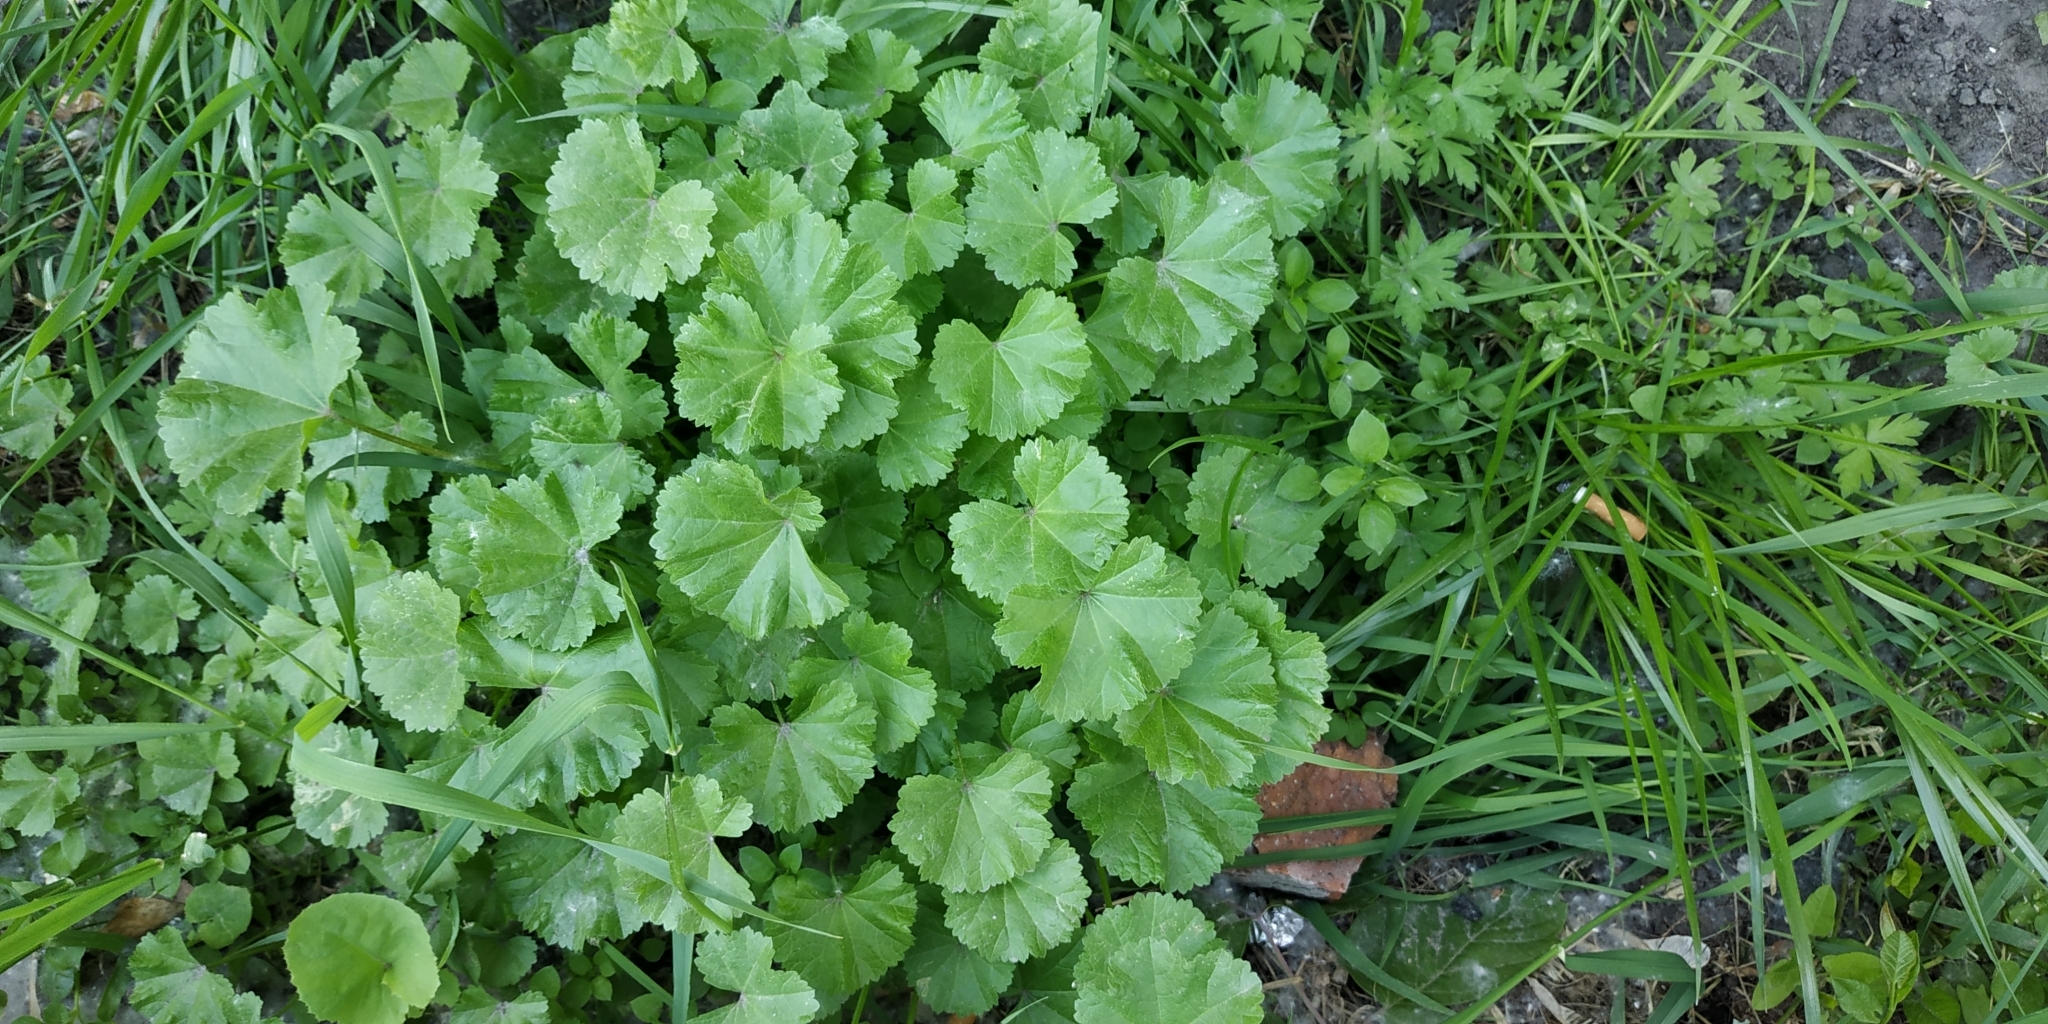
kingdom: Plantae
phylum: Tracheophyta
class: Magnoliopsida
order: Malvales
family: Malvaceae
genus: Malva
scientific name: Malva pusilla
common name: Small mallow
